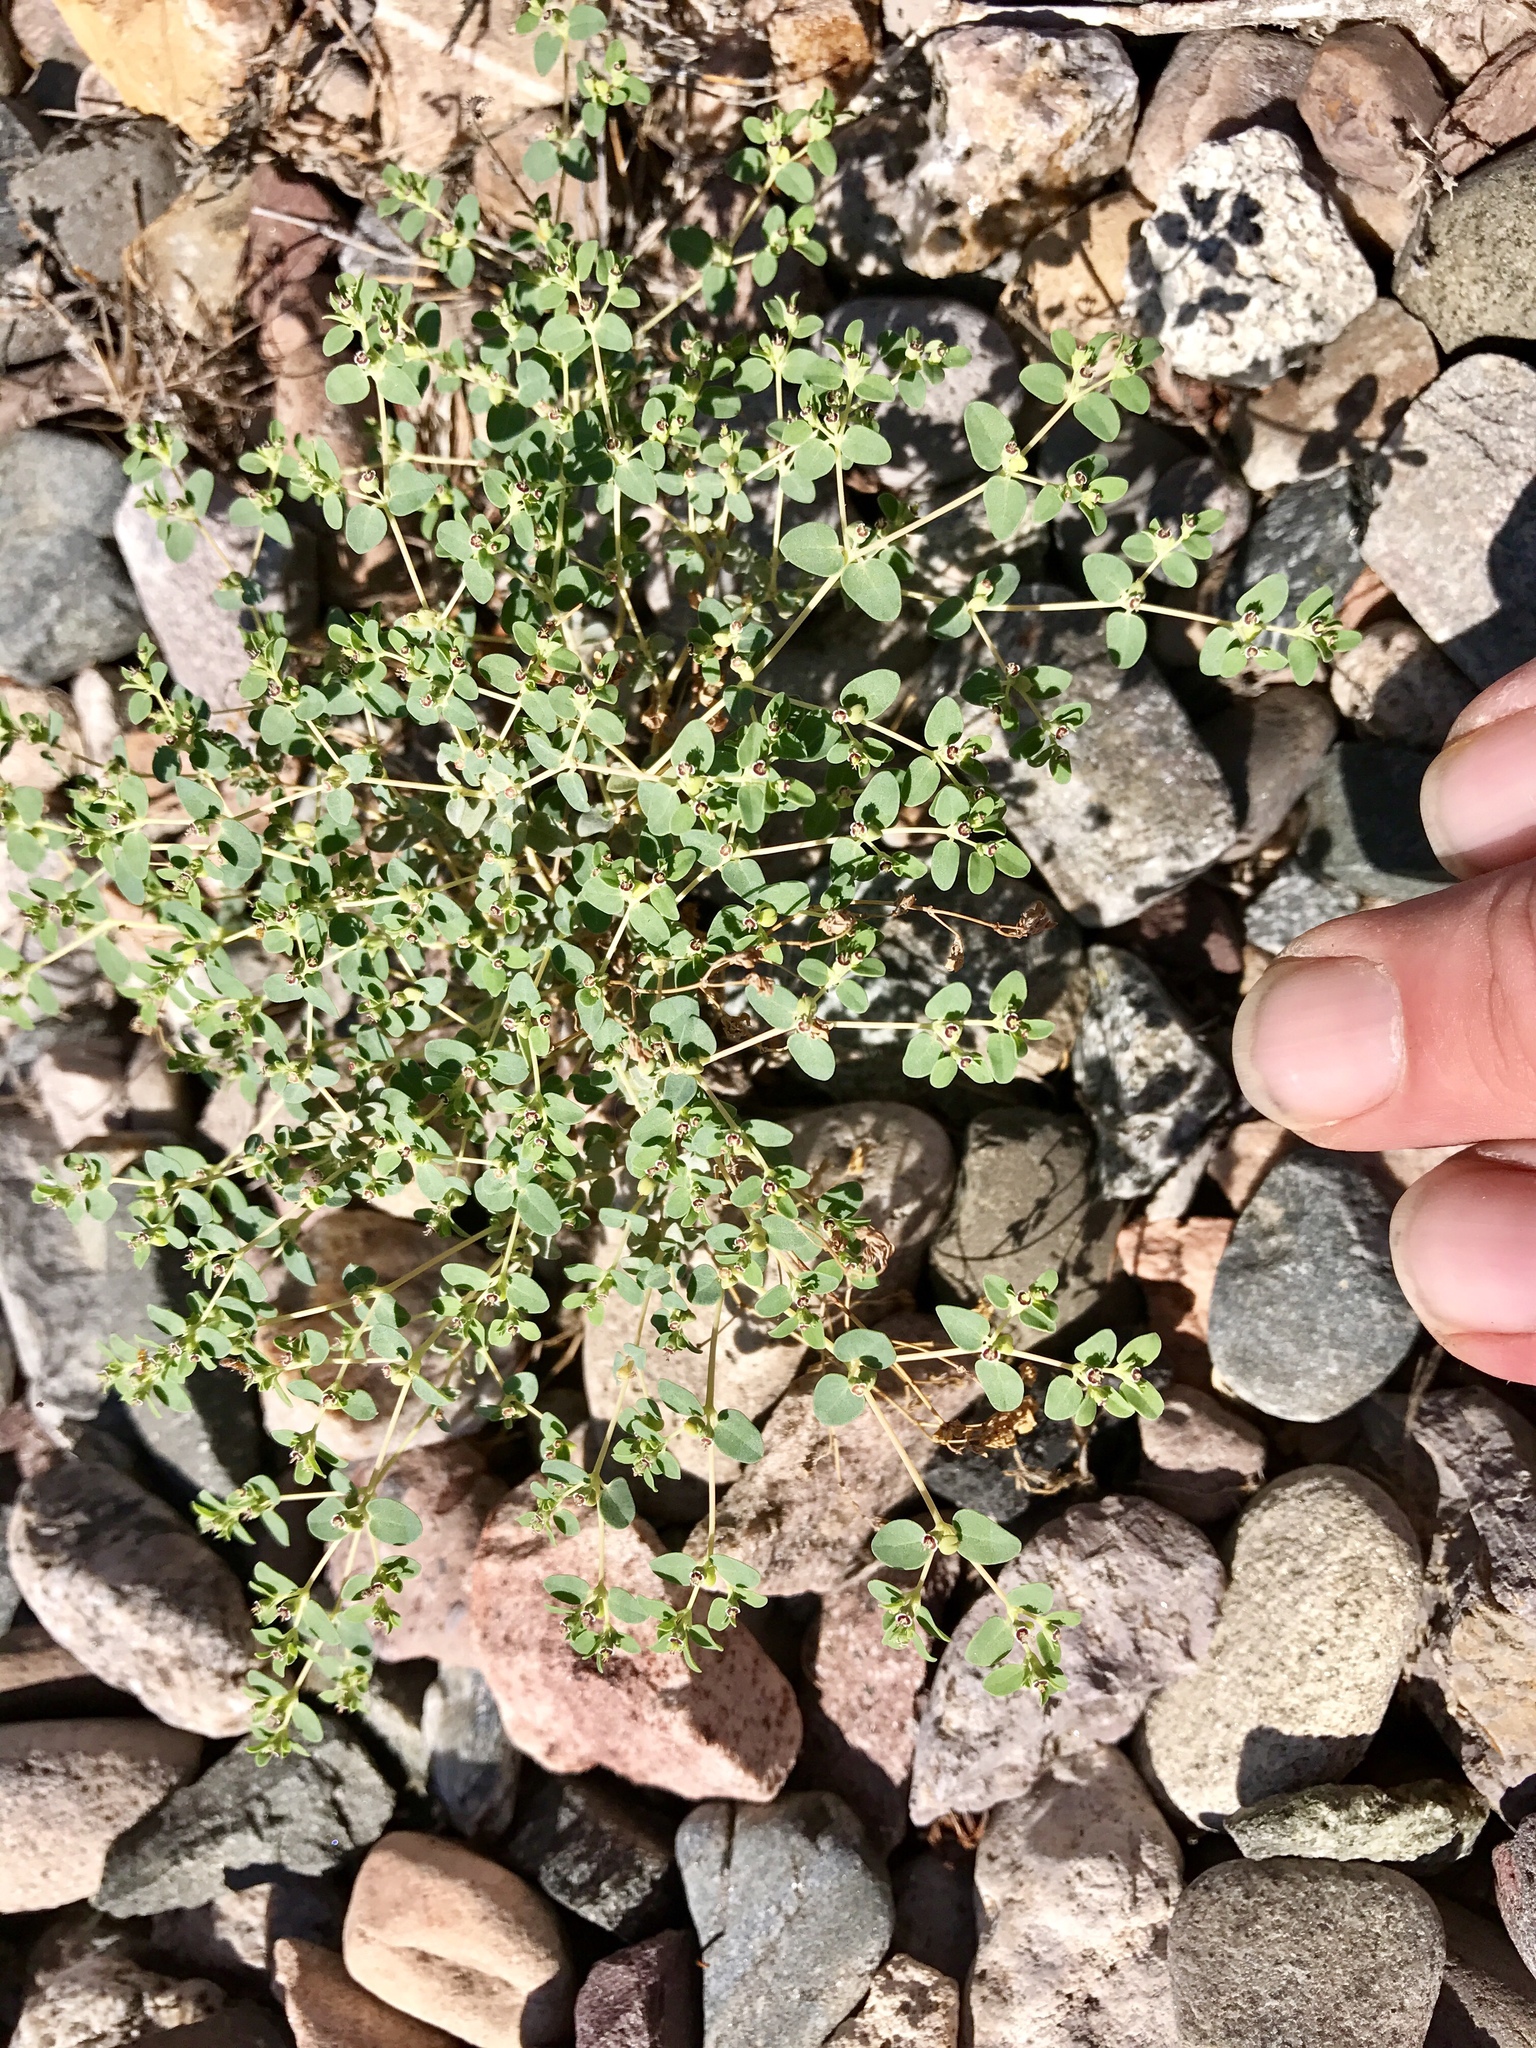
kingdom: Plantae
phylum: Tracheophyta
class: Magnoliopsida
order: Malpighiales
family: Euphorbiaceae
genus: Euphorbia
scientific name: Euphorbia polycarpa
